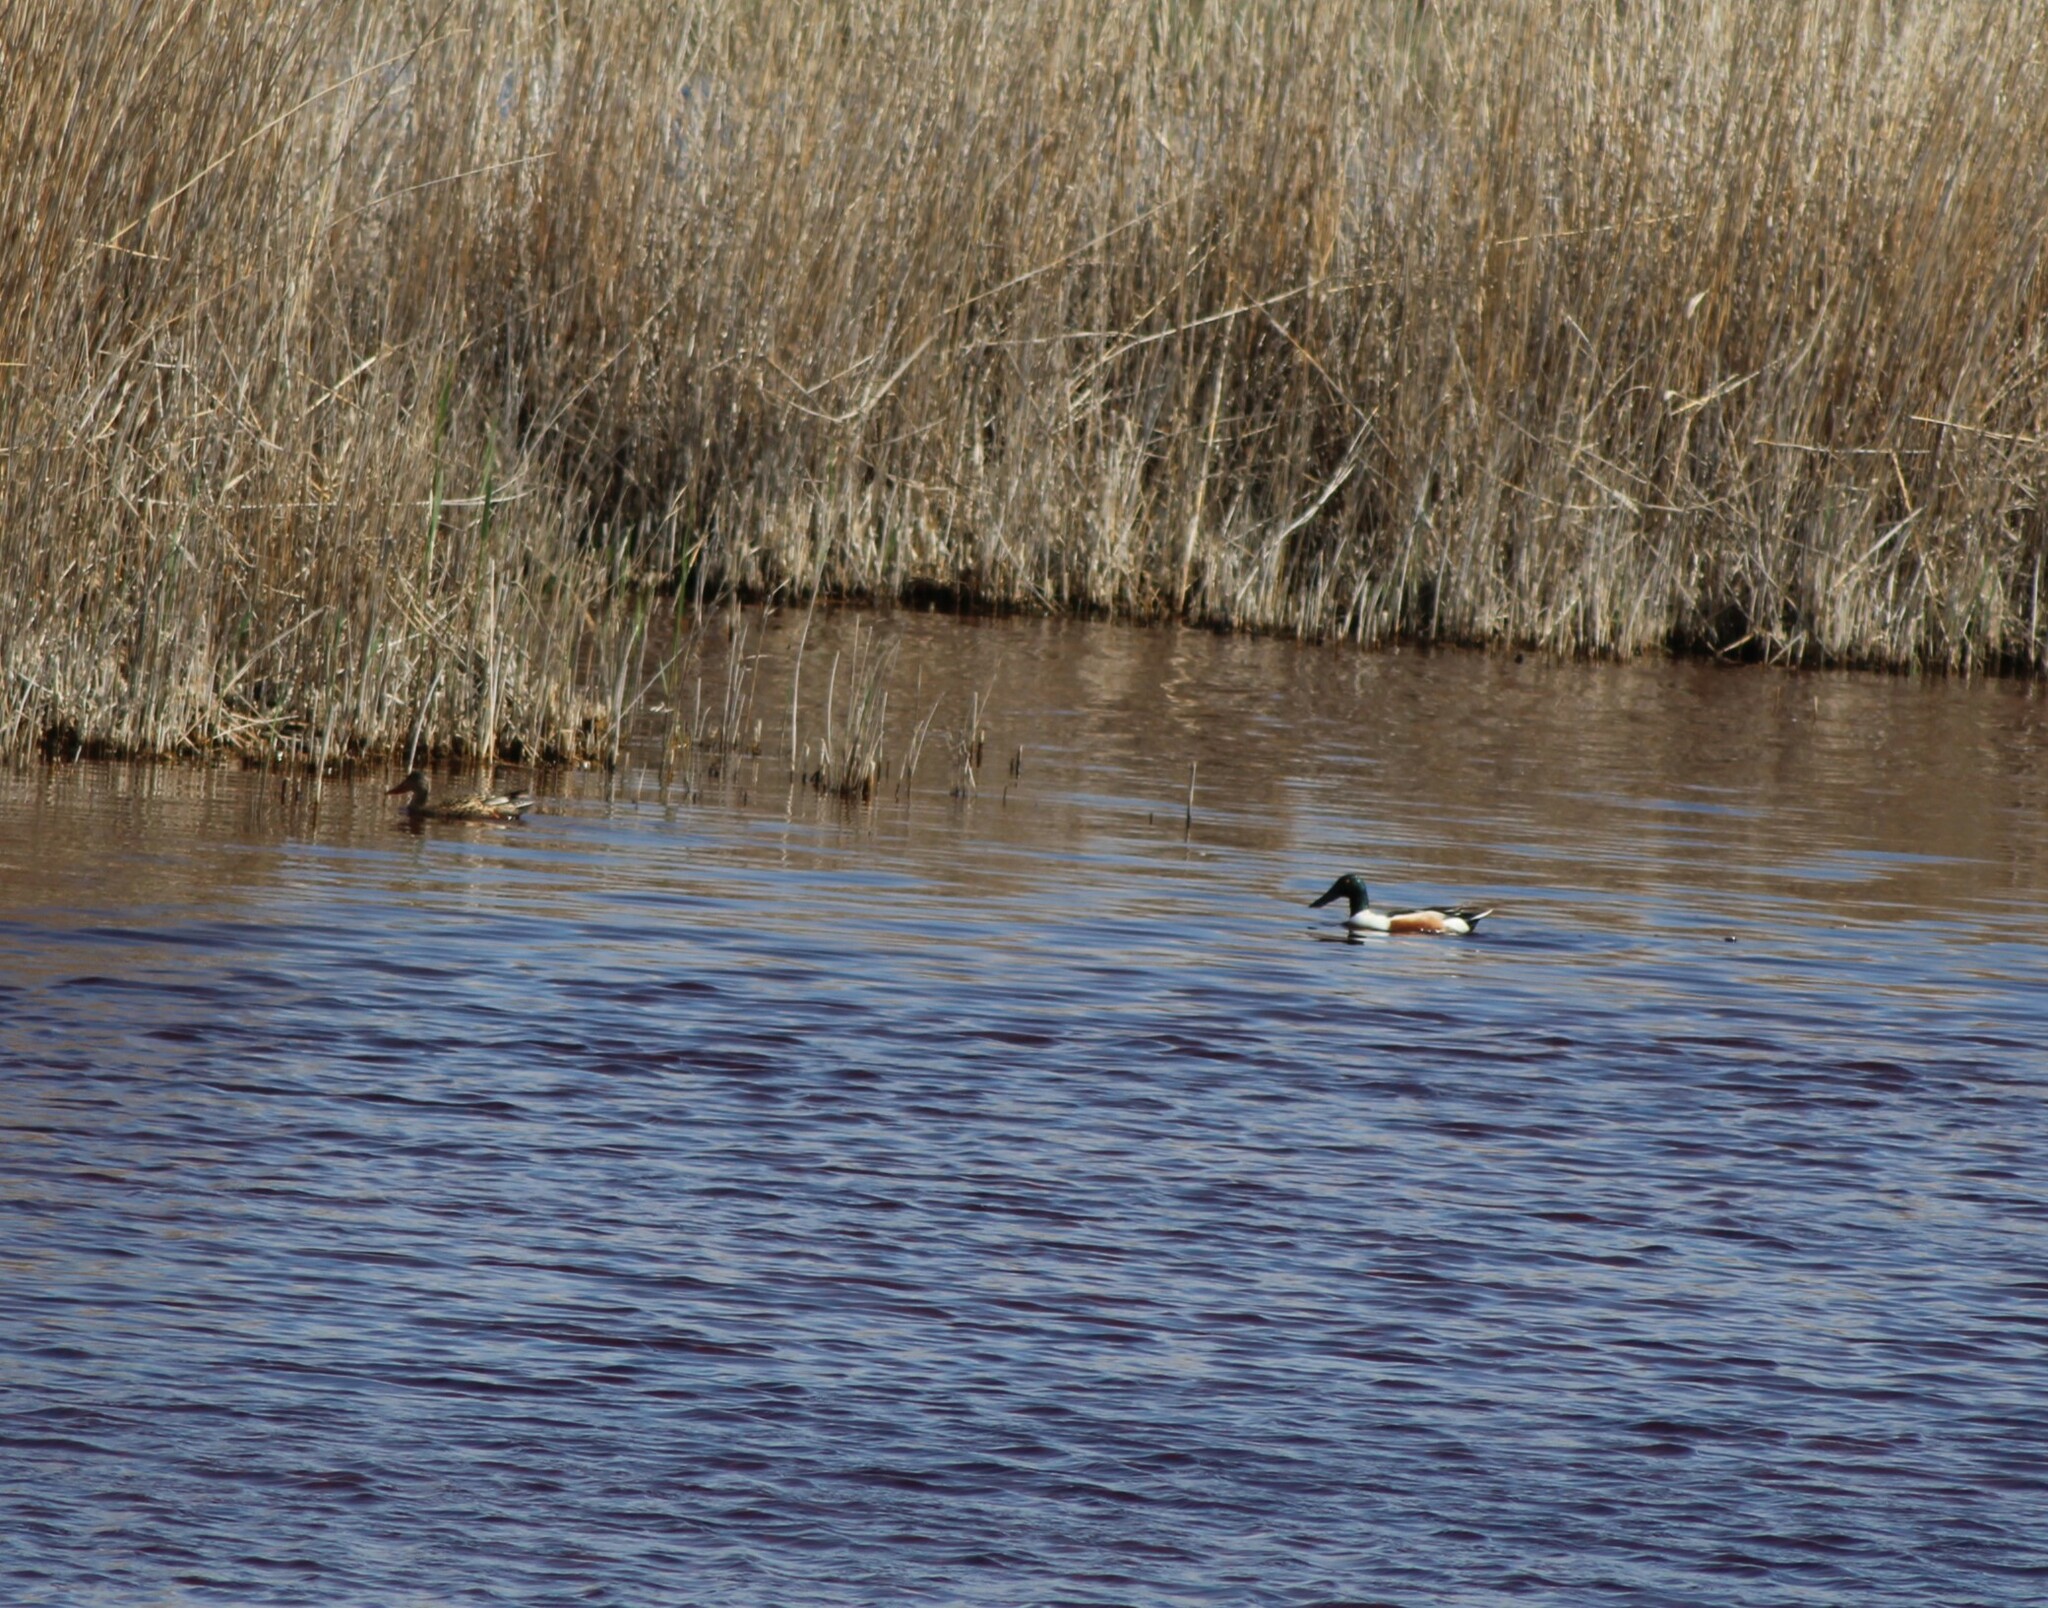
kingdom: Animalia
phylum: Chordata
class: Aves
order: Anseriformes
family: Anatidae
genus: Spatula
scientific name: Spatula clypeata
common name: Northern shoveler
